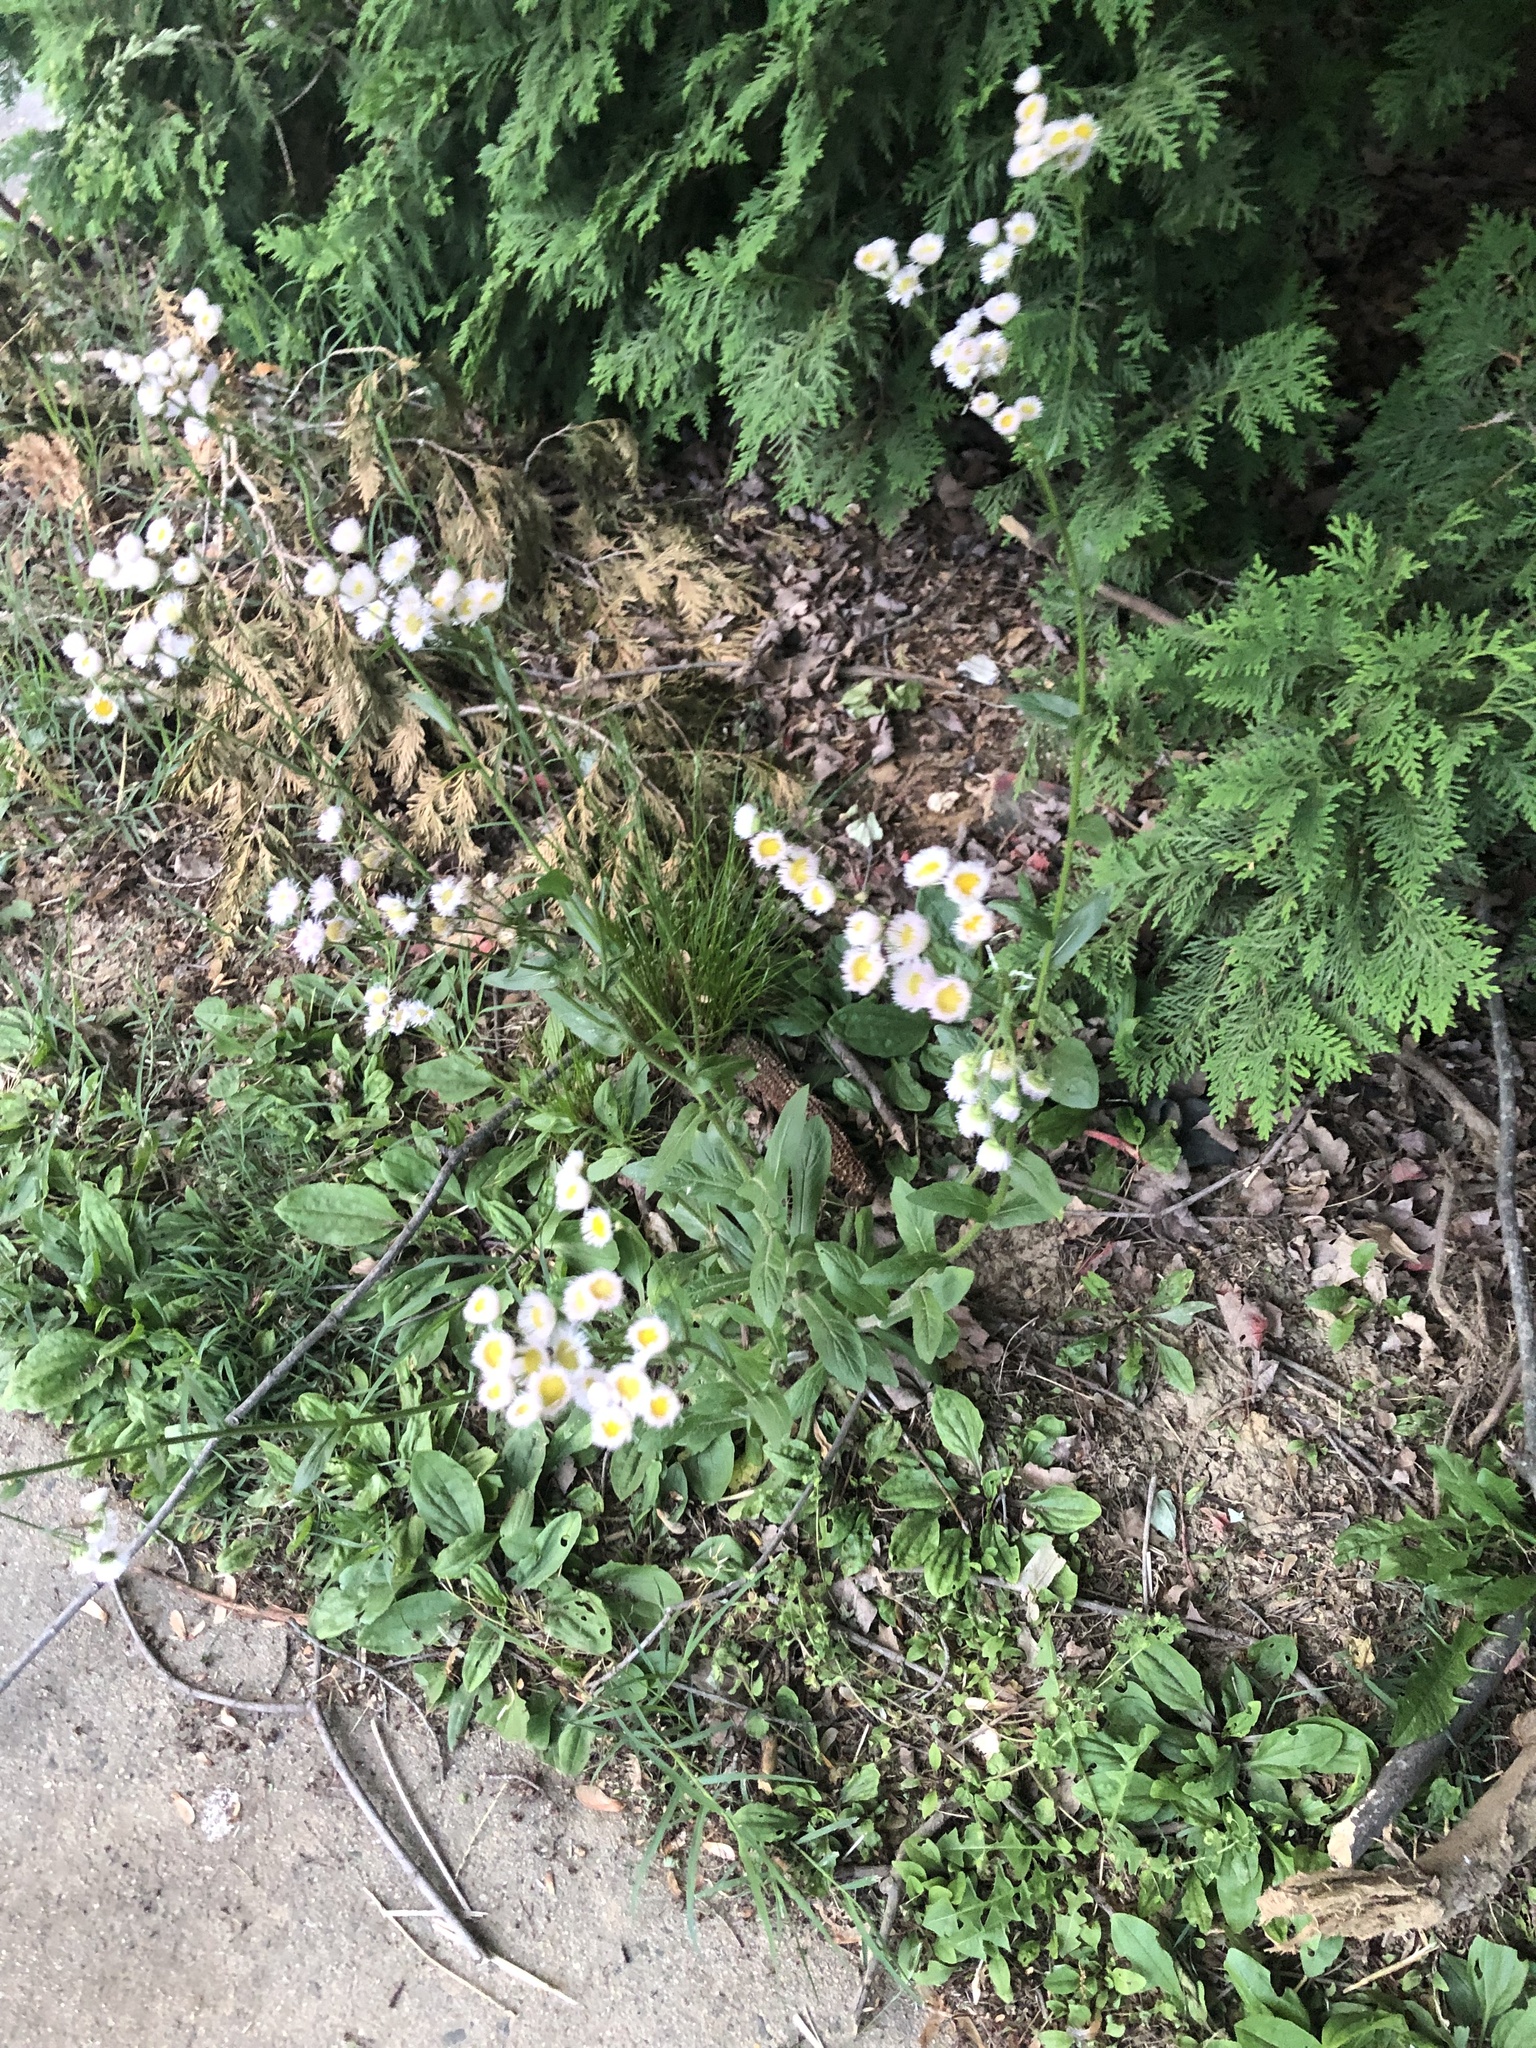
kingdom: Plantae
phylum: Tracheophyta
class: Magnoliopsida
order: Asterales
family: Asteraceae
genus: Erigeron
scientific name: Erigeron philadelphicus
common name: Robin's-plantain
